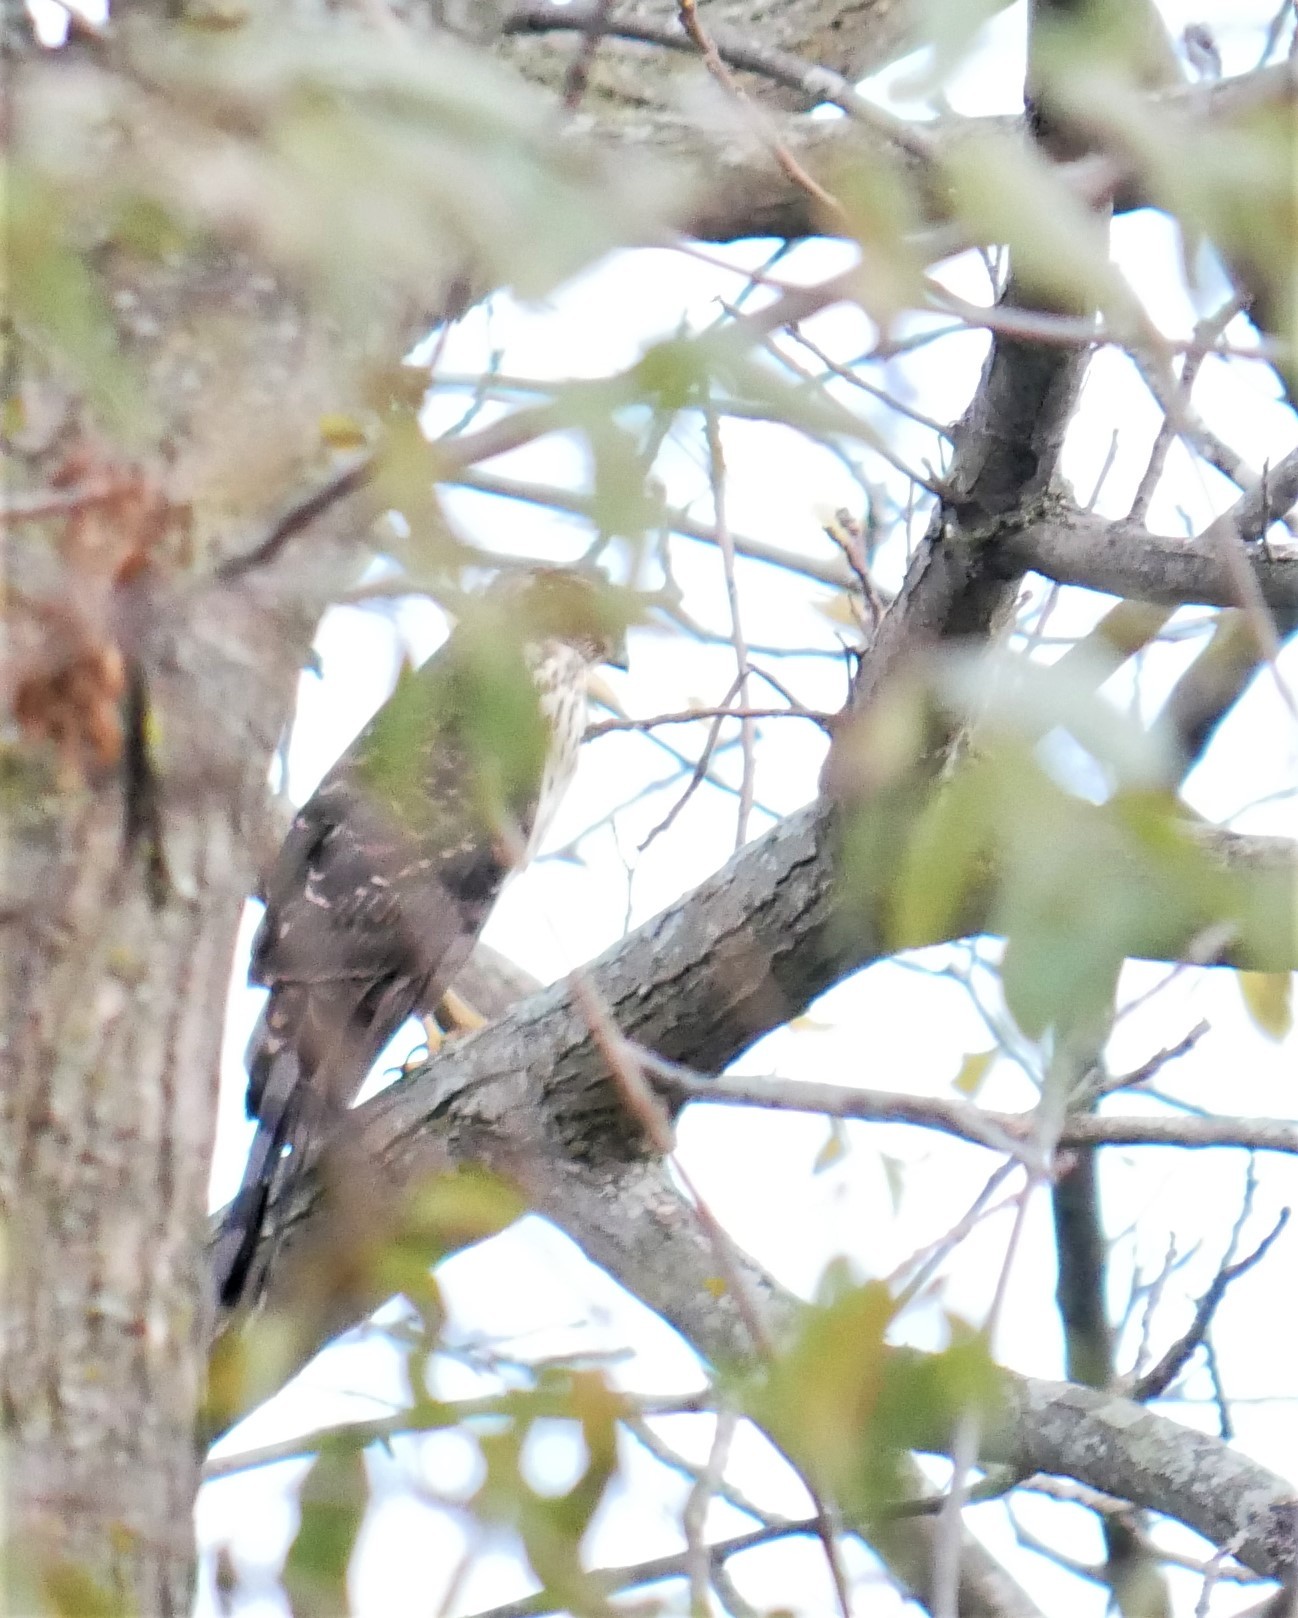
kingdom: Animalia
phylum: Chordata
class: Aves
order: Accipitriformes
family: Accipitridae
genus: Accipiter
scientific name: Accipiter cooperii
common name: Cooper's hawk
